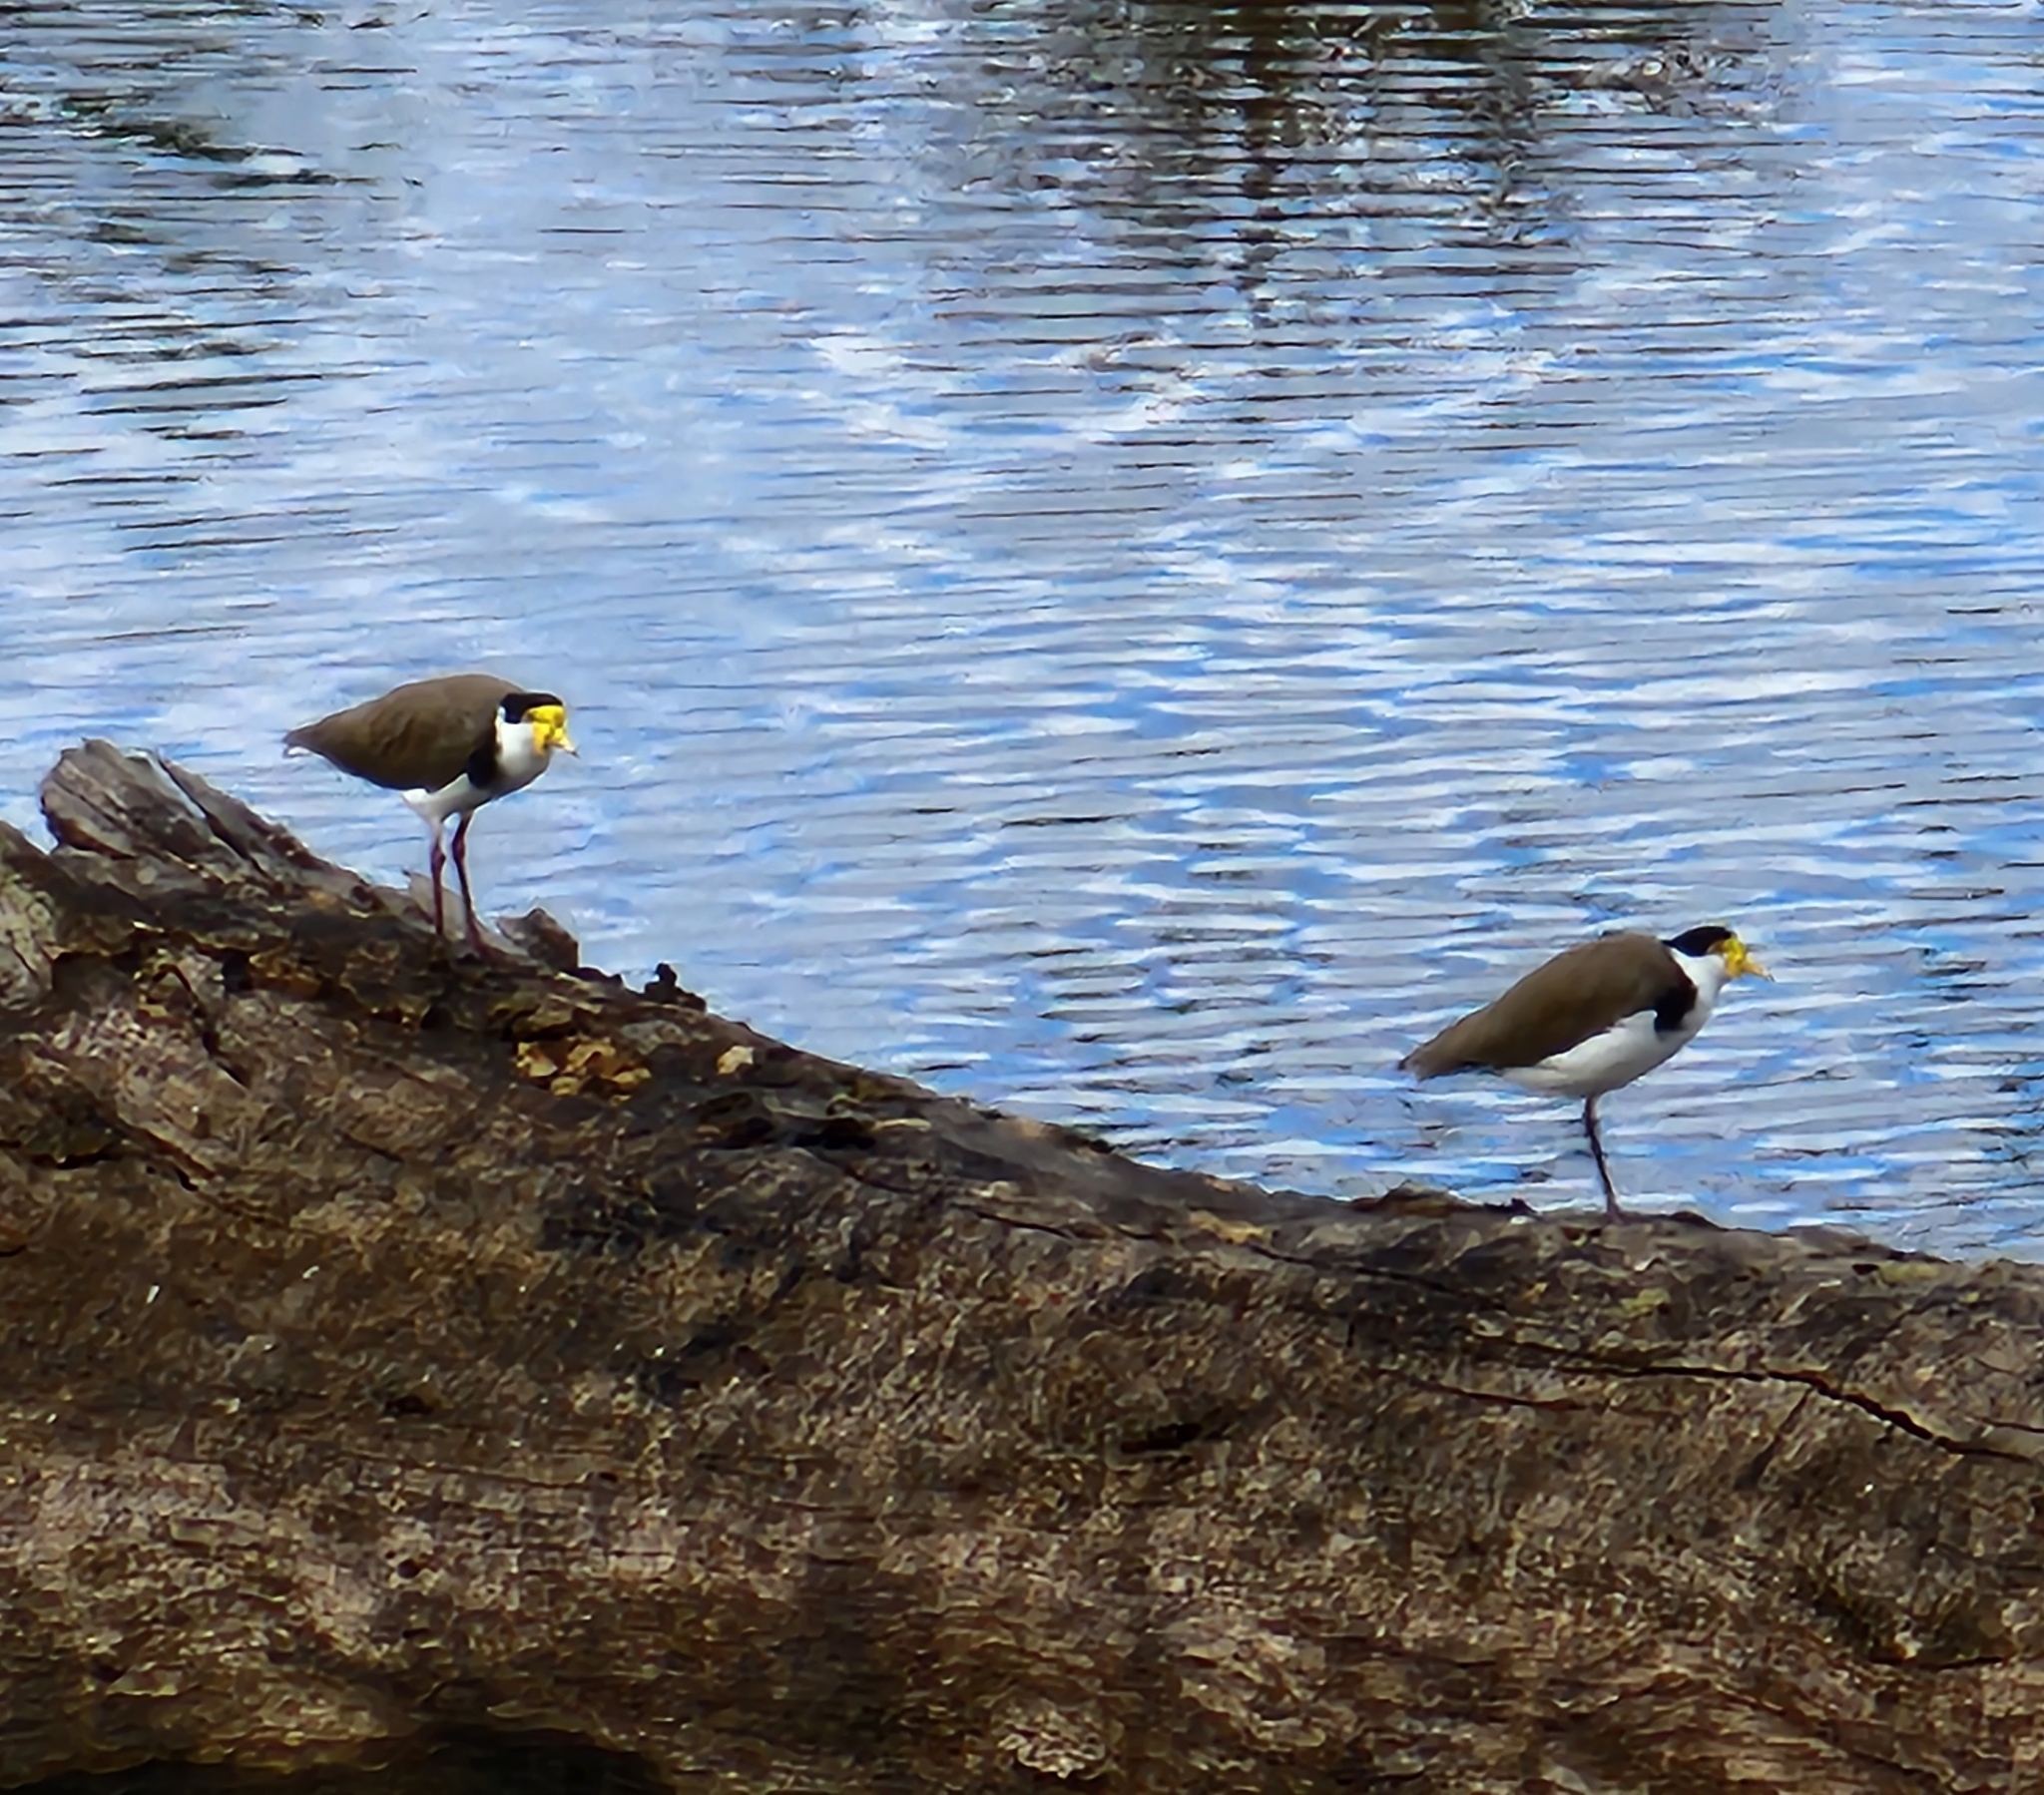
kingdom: Animalia
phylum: Chordata
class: Aves
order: Charadriiformes
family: Charadriidae
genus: Vanellus
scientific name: Vanellus miles
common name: Masked lapwing
